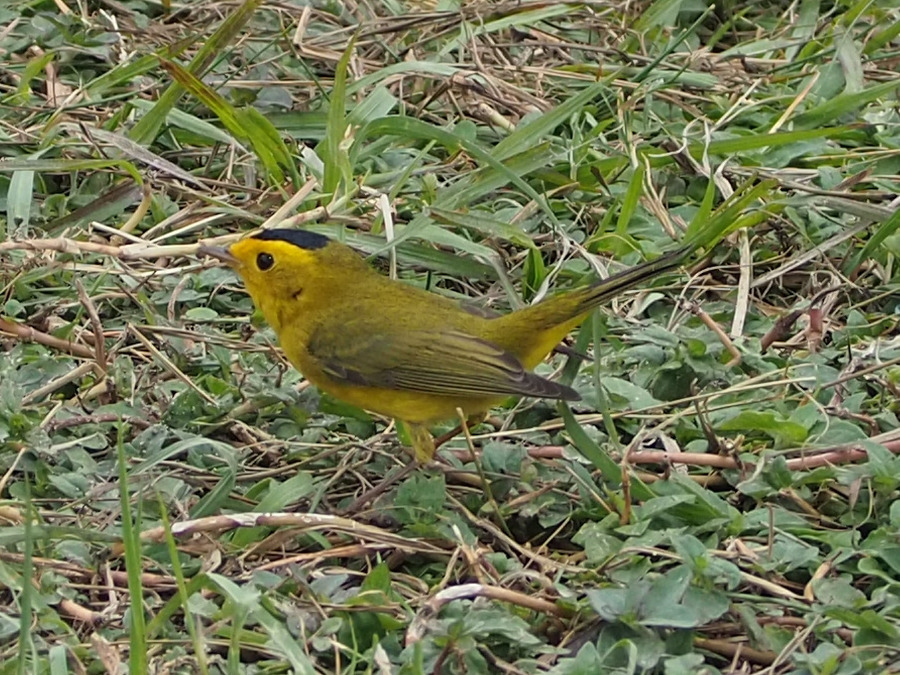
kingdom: Animalia
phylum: Chordata
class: Aves
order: Passeriformes
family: Parulidae
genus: Cardellina
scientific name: Cardellina pusilla
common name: Wilson's warbler
